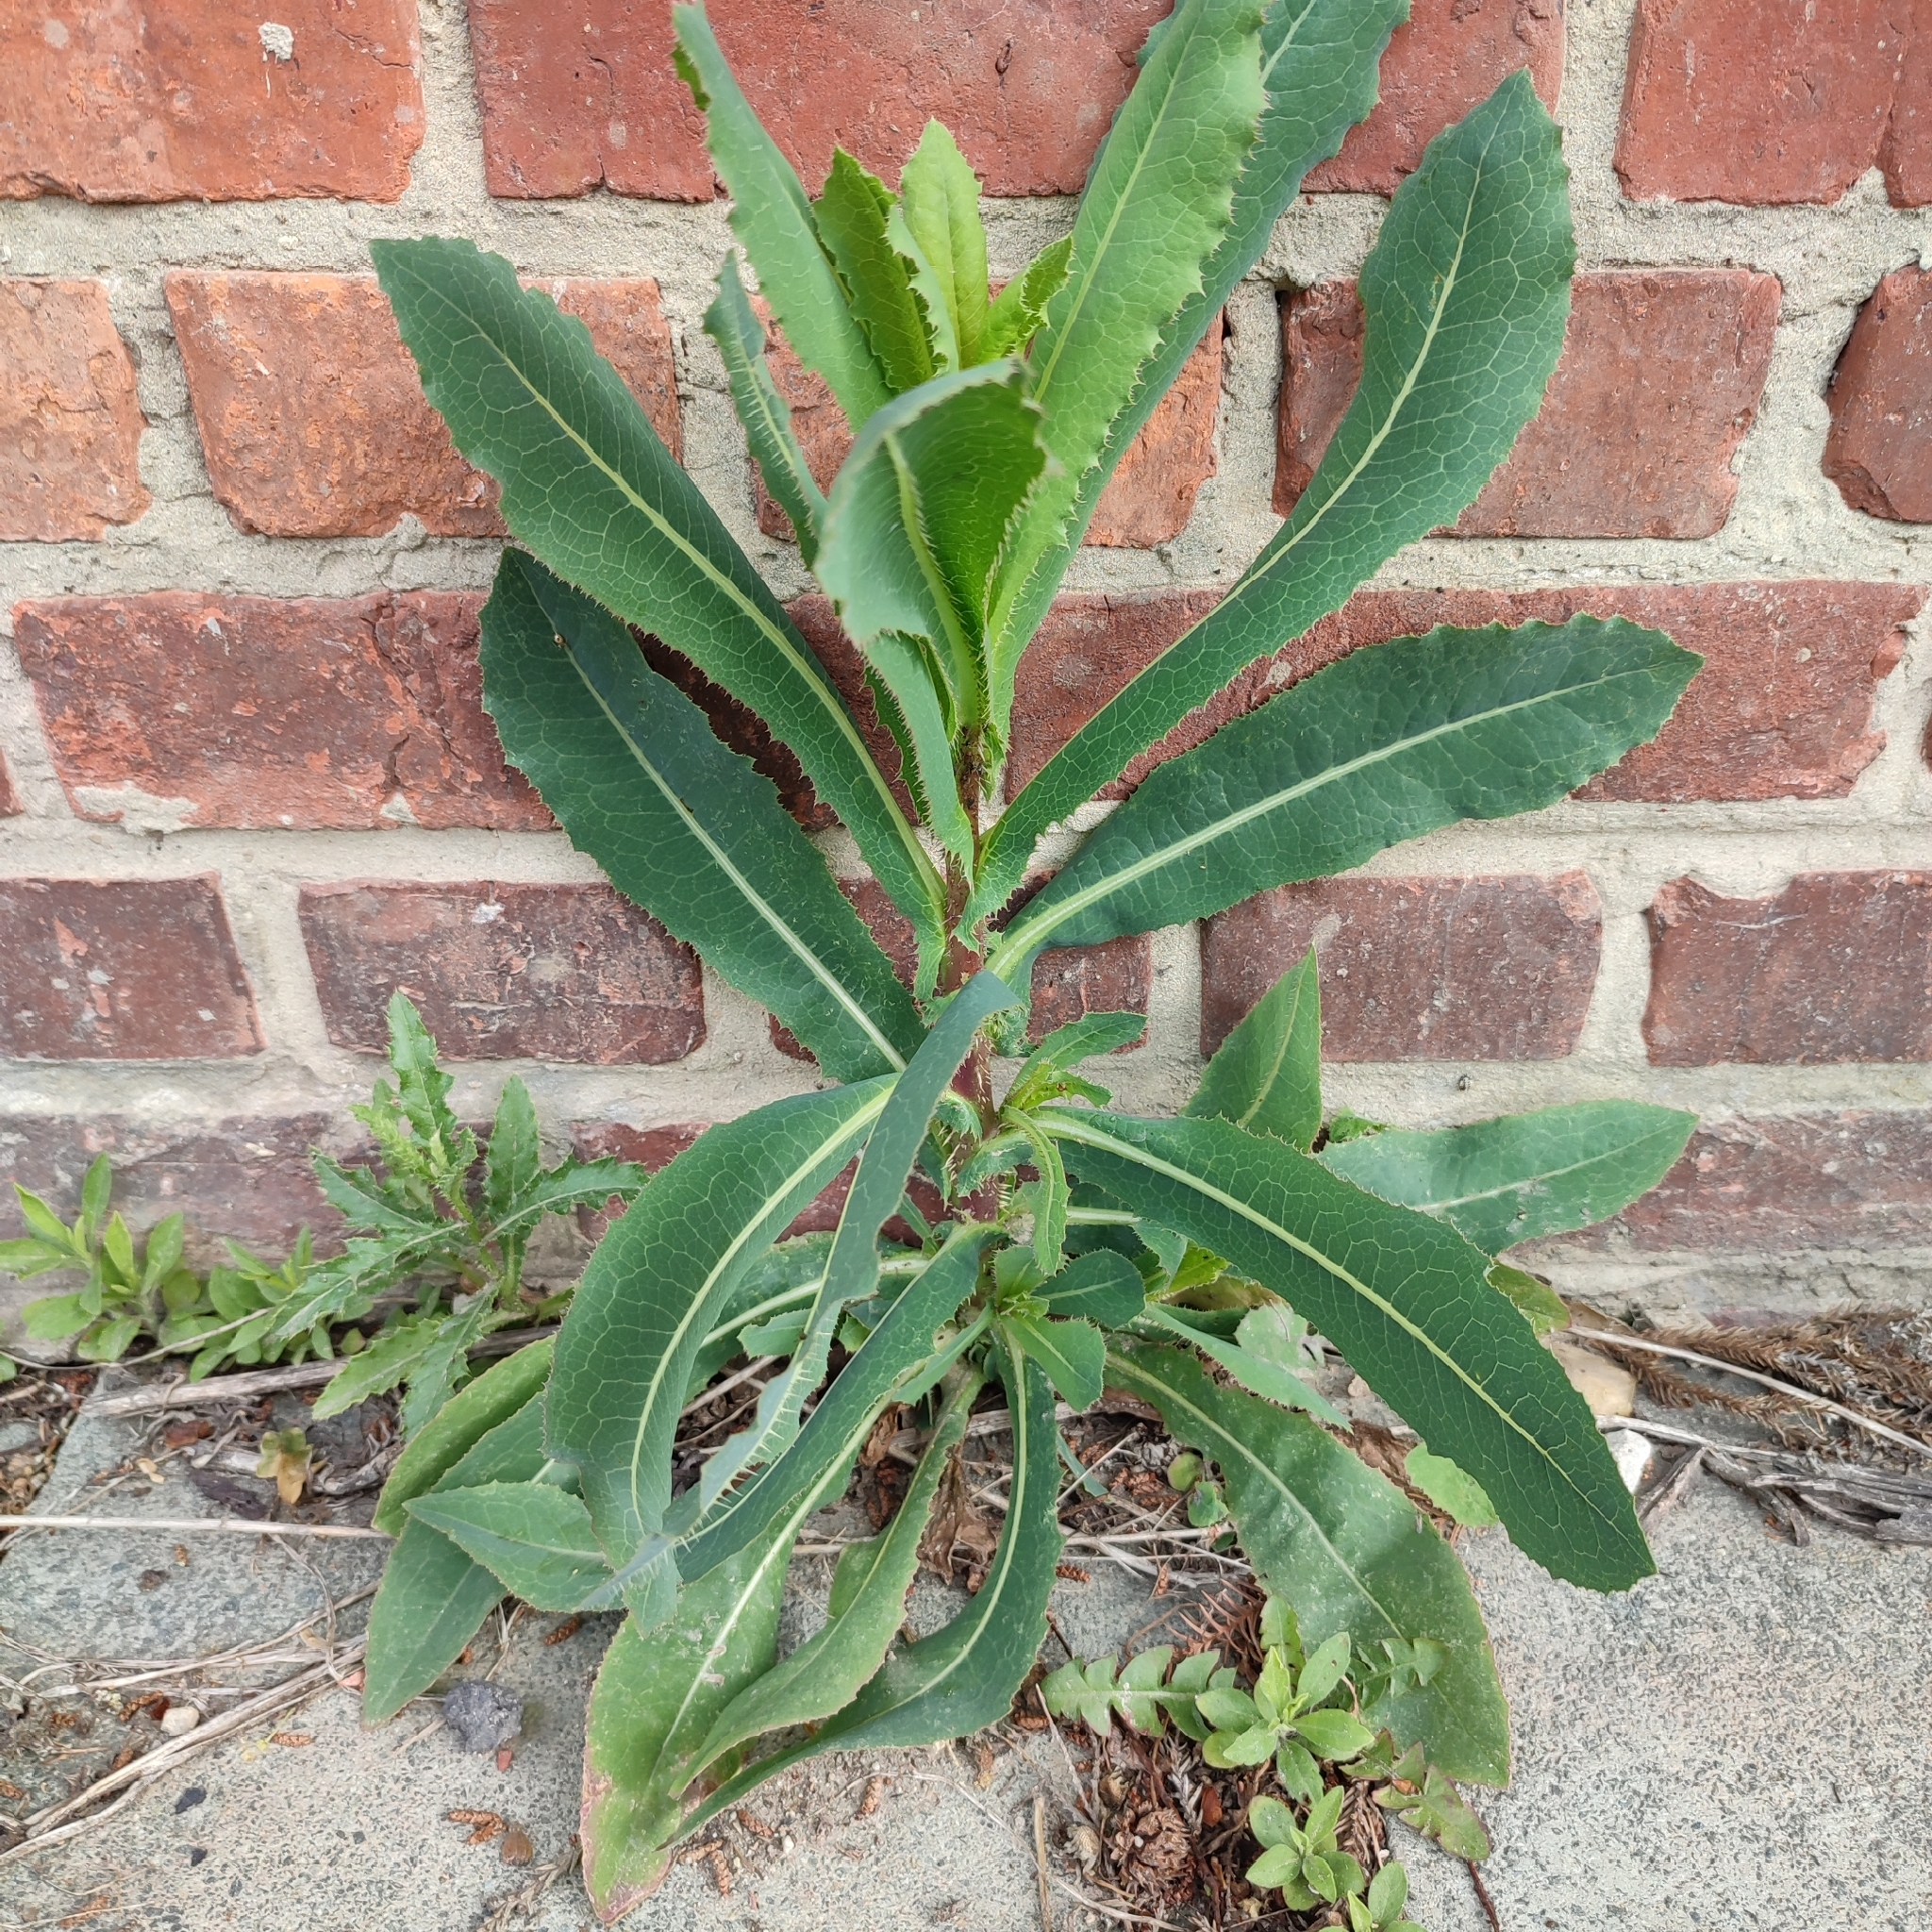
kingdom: Plantae
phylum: Tracheophyta
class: Magnoliopsida
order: Asterales
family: Asteraceae
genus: Lactuca
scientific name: Lactuca serriola
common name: Prickly lettuce
